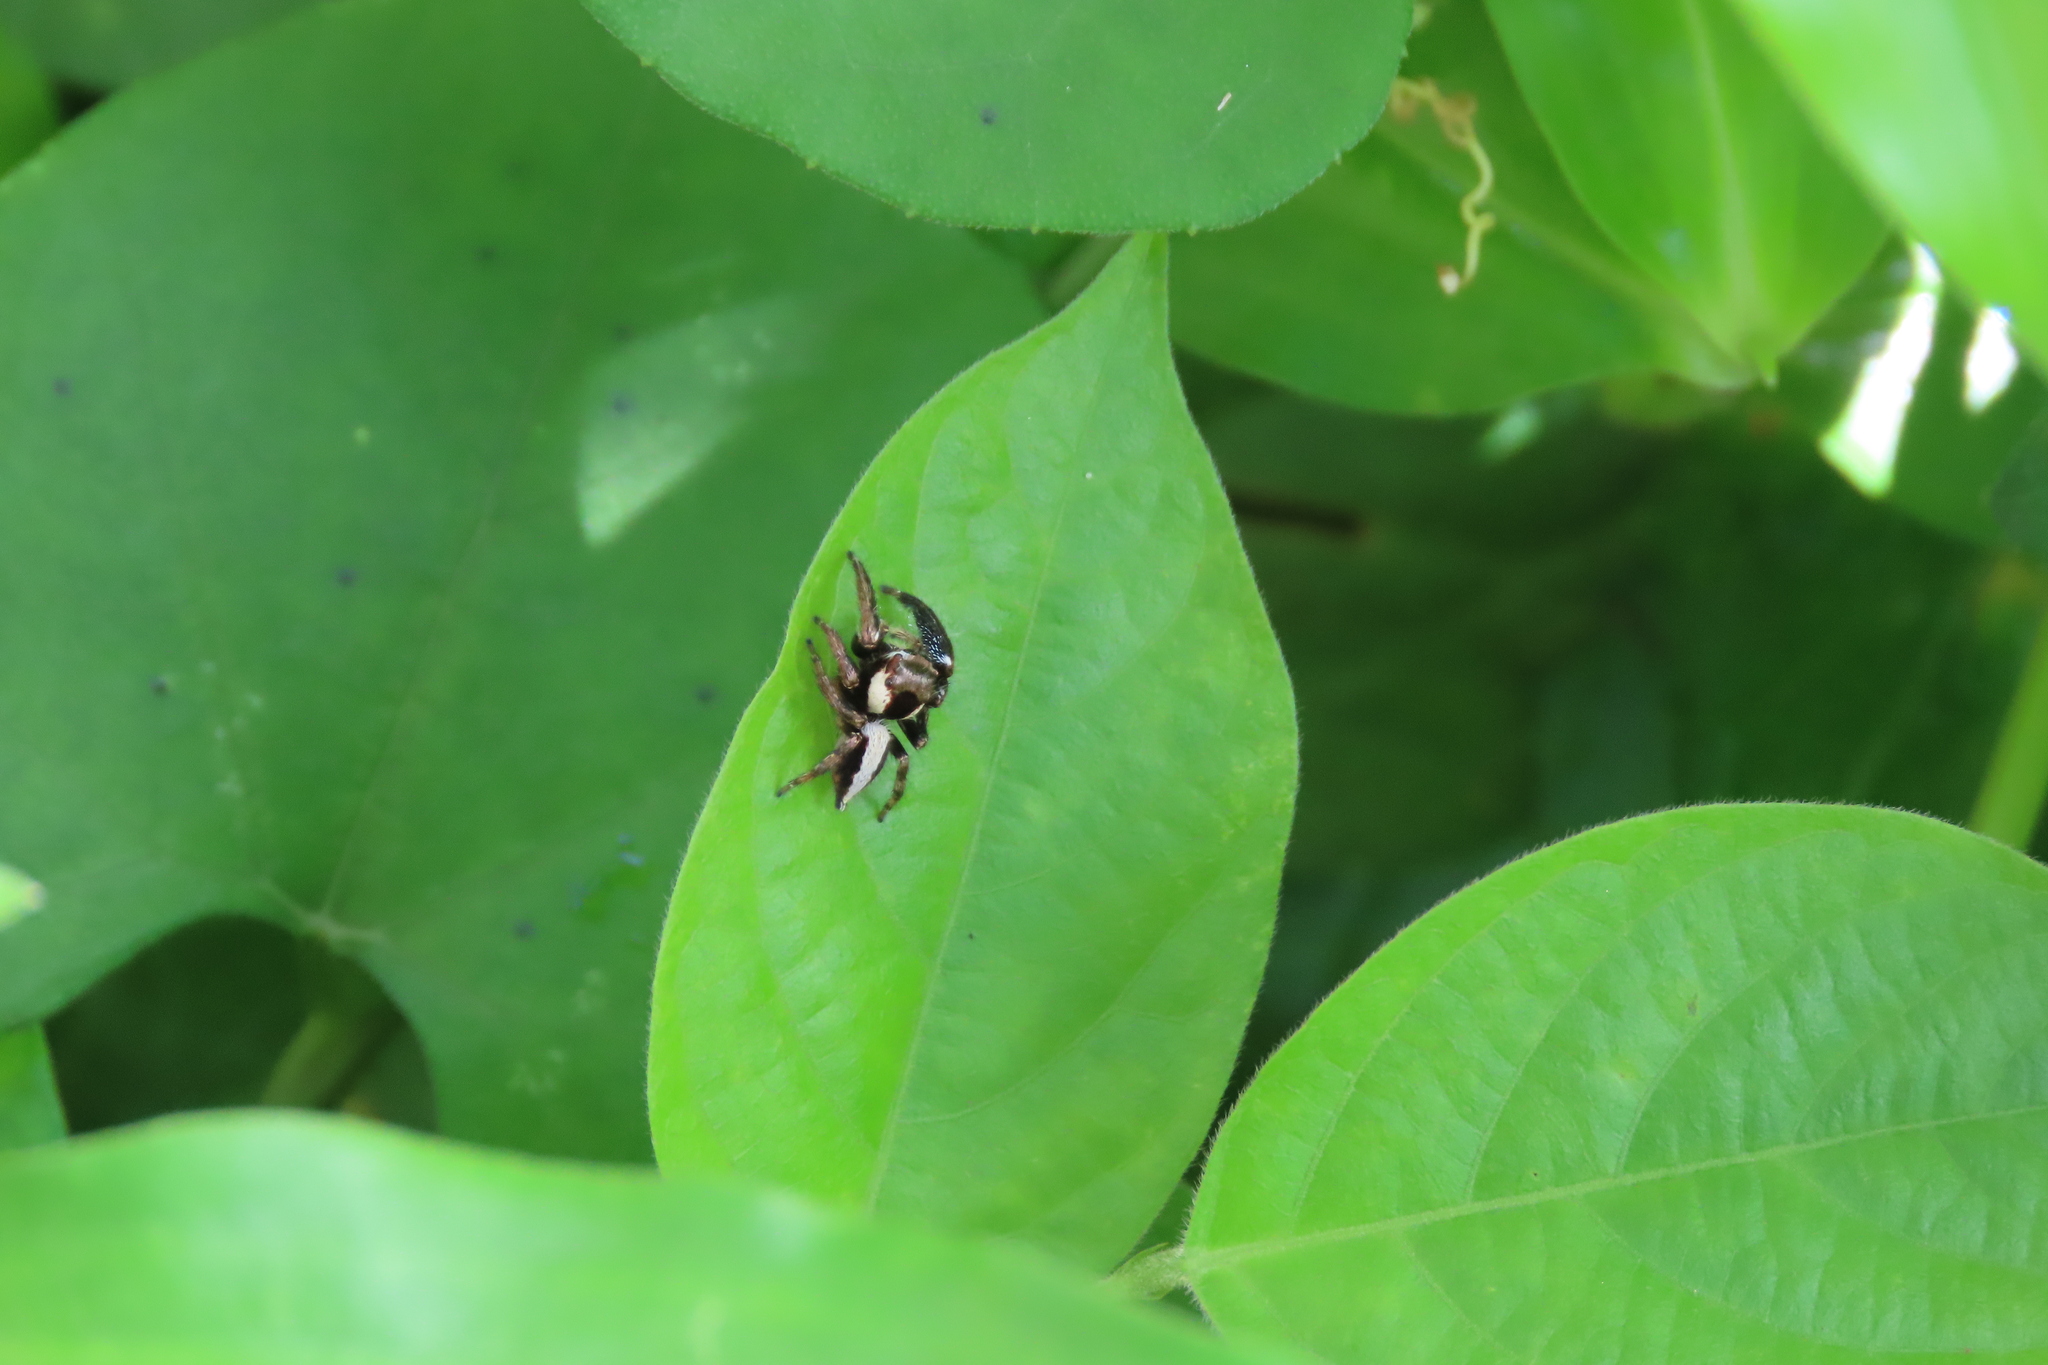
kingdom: Animalia
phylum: Arthropoda
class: Arachnida
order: Araneae
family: Salticidae
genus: Hyllus
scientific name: Hyllus manu
